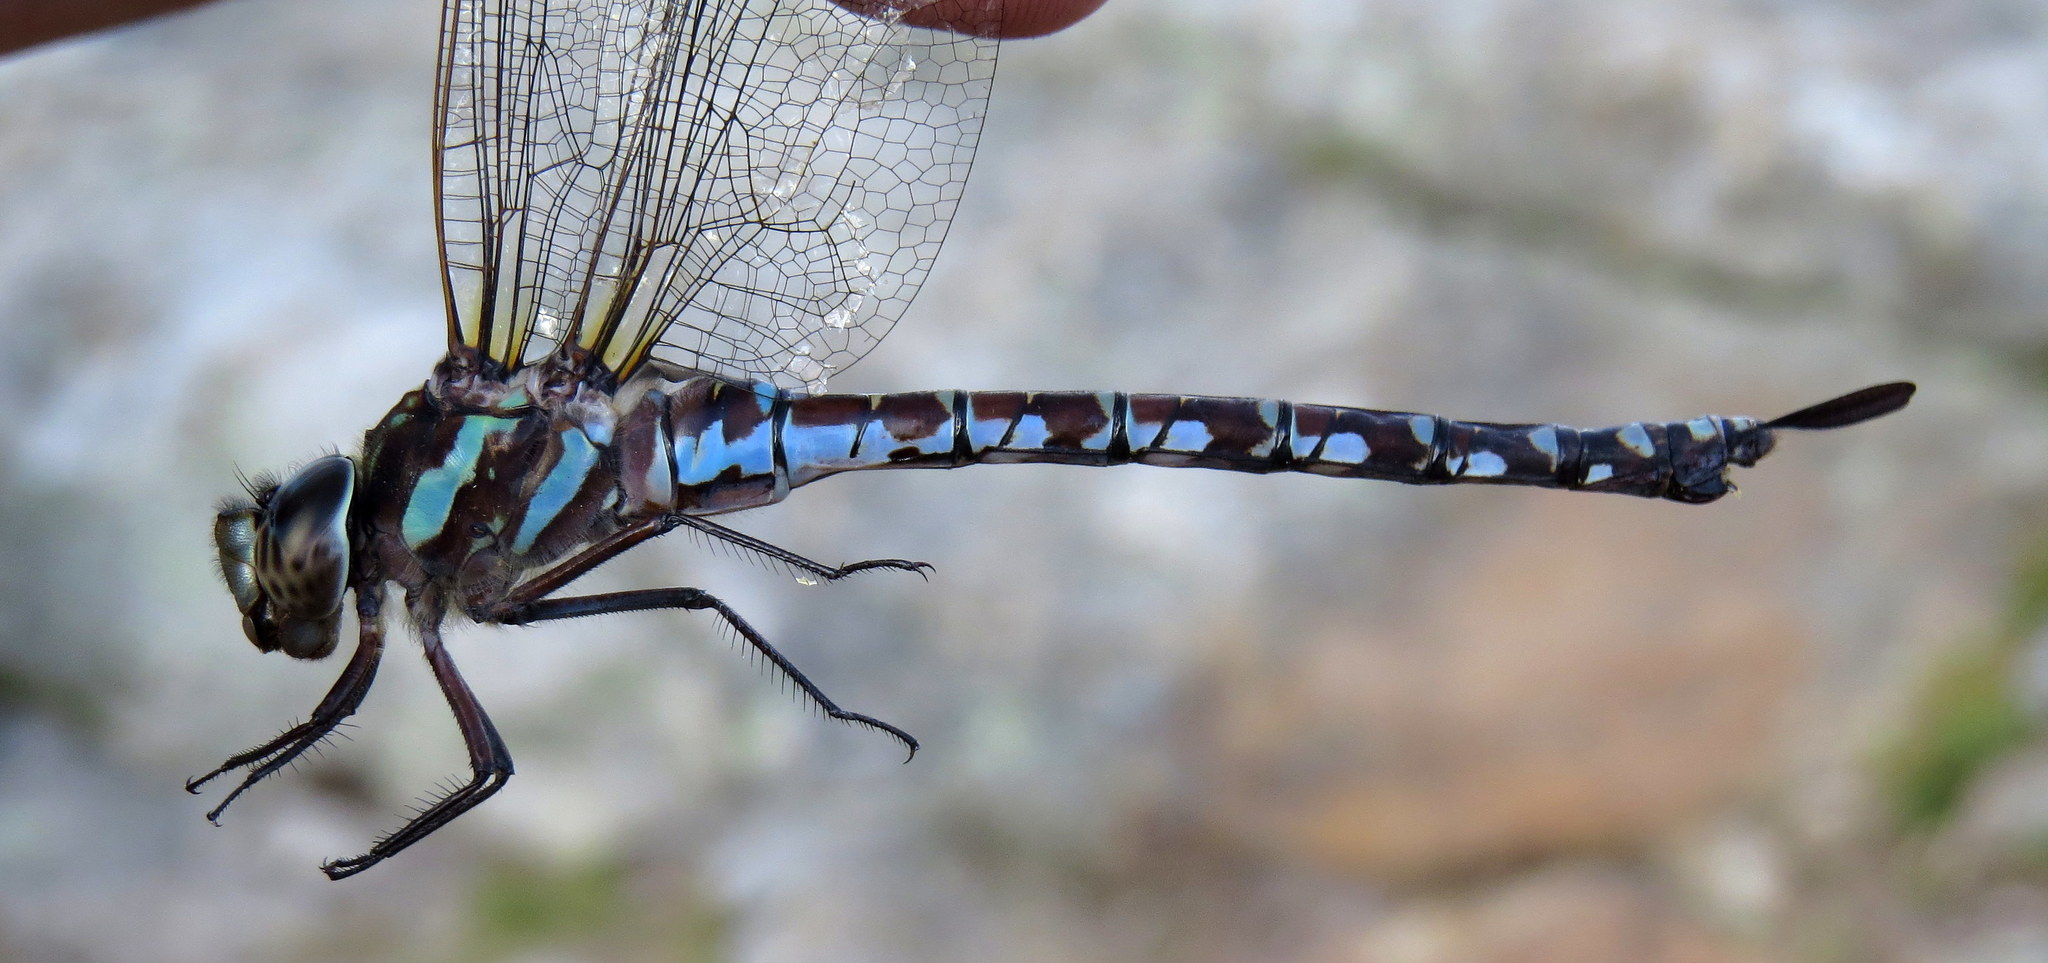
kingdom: Animalia
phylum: Arthropoda
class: Insecta
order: Odonata
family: Aeshnidae
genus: Aeshna
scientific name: Aeshna verticalis
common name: Green-striped darner
